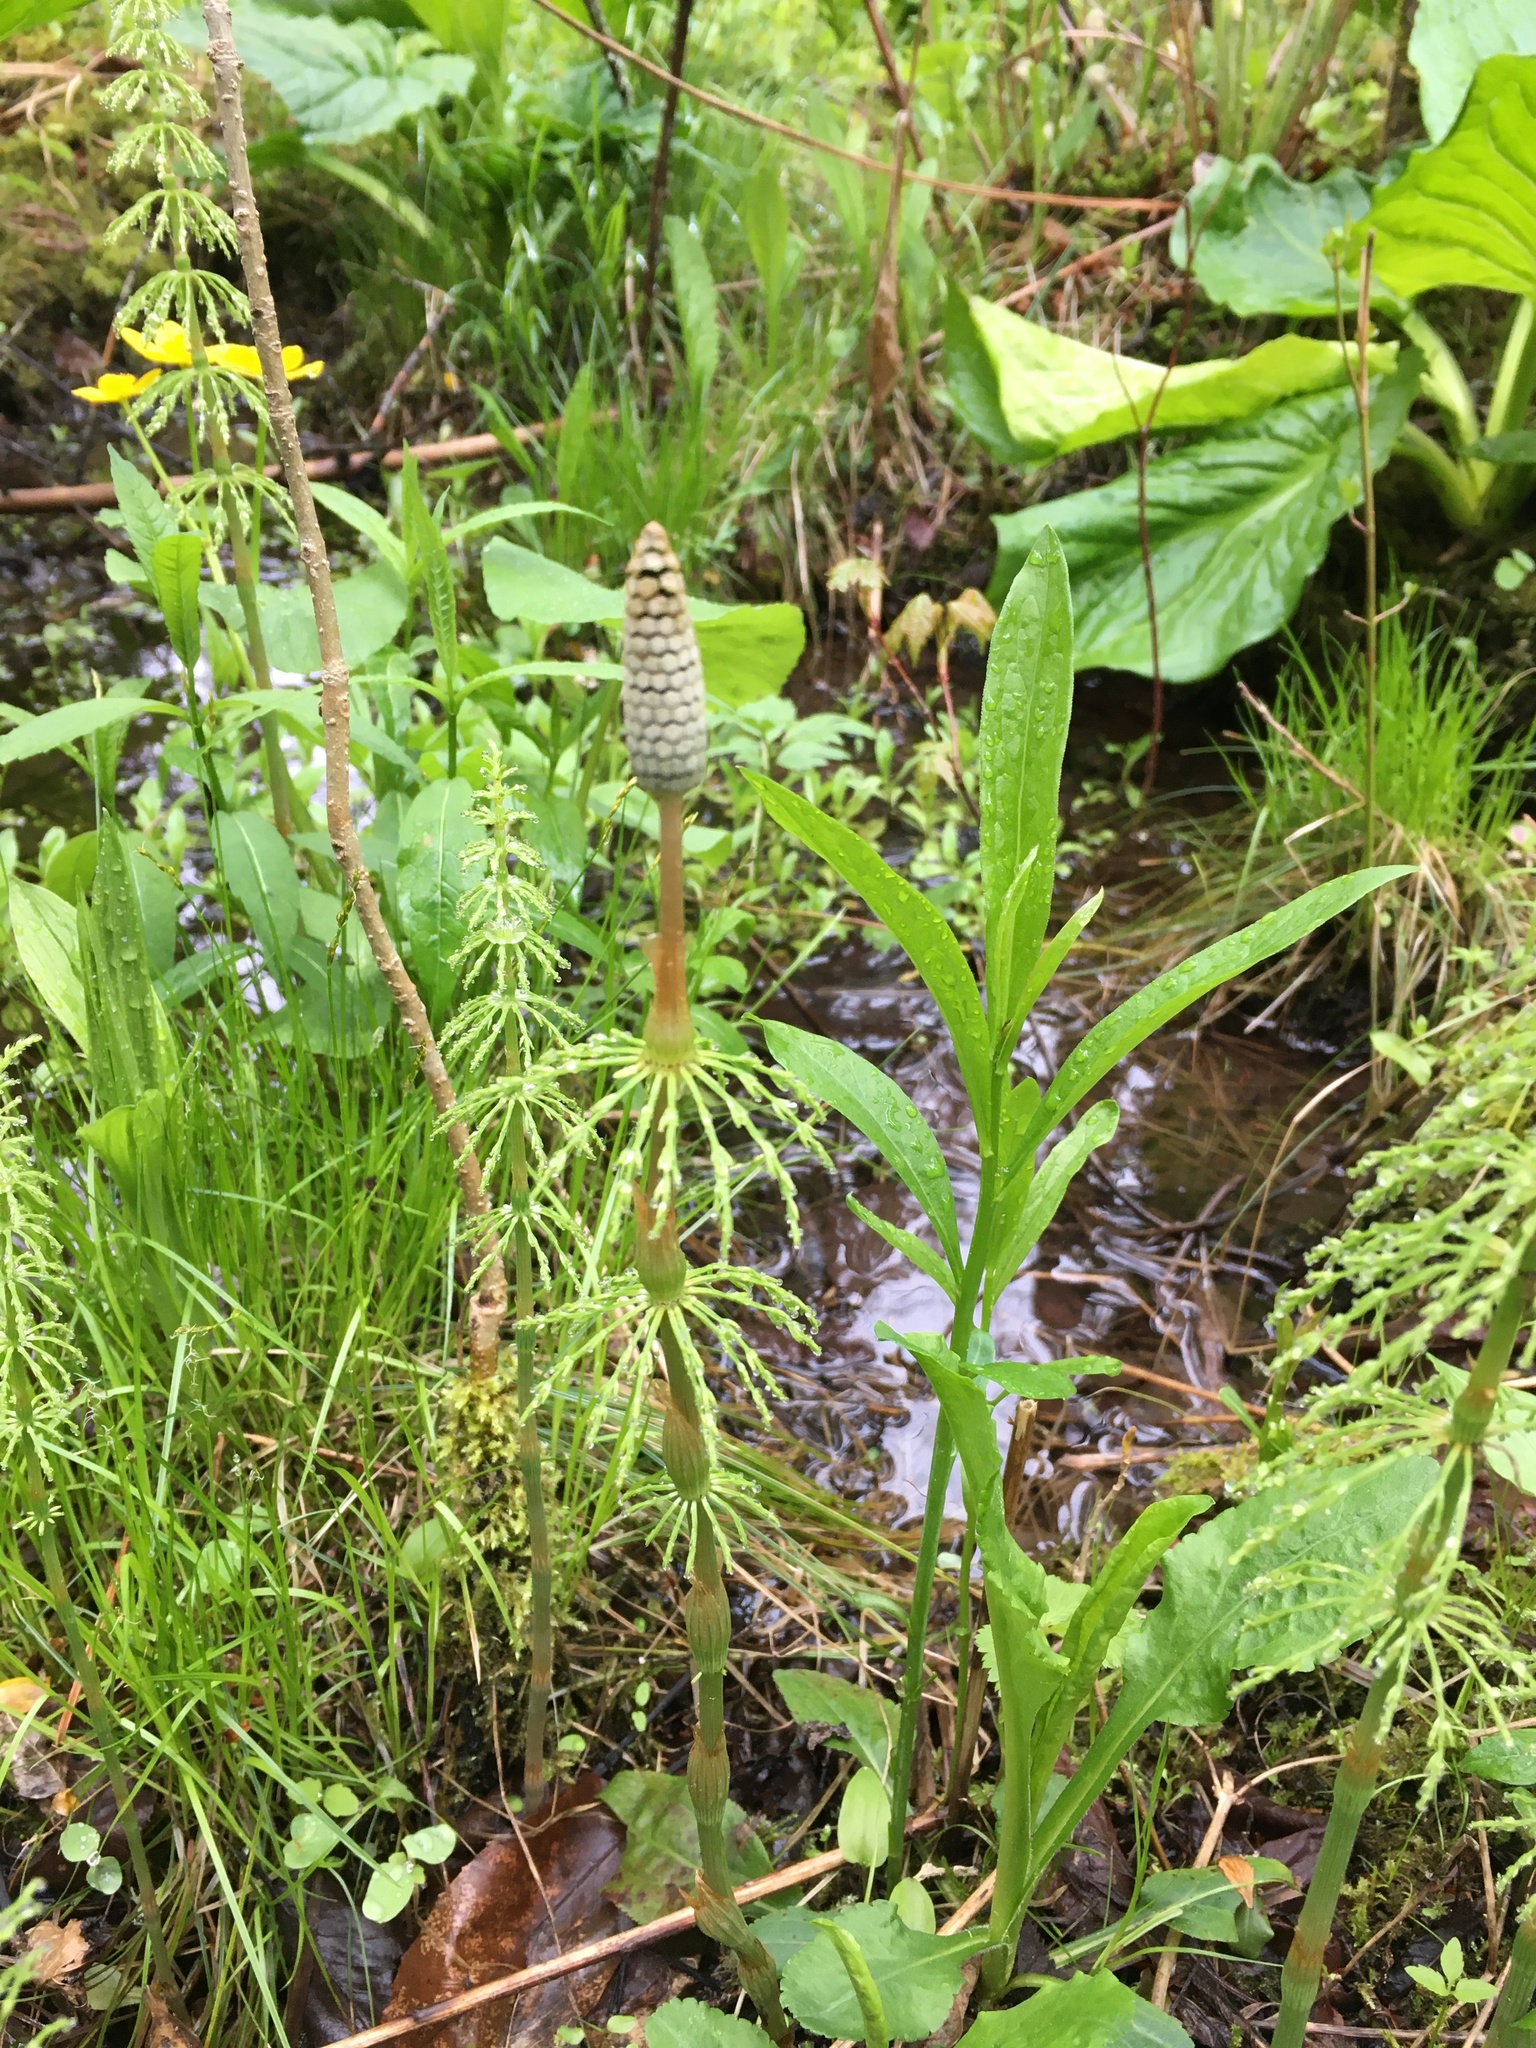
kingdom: Plantae
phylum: Tracheophyta
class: Polypodiopsida
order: Equisetales
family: Equisetaceae
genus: Equisetum
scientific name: Equisetum sylvaticum
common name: Wood horsetail
